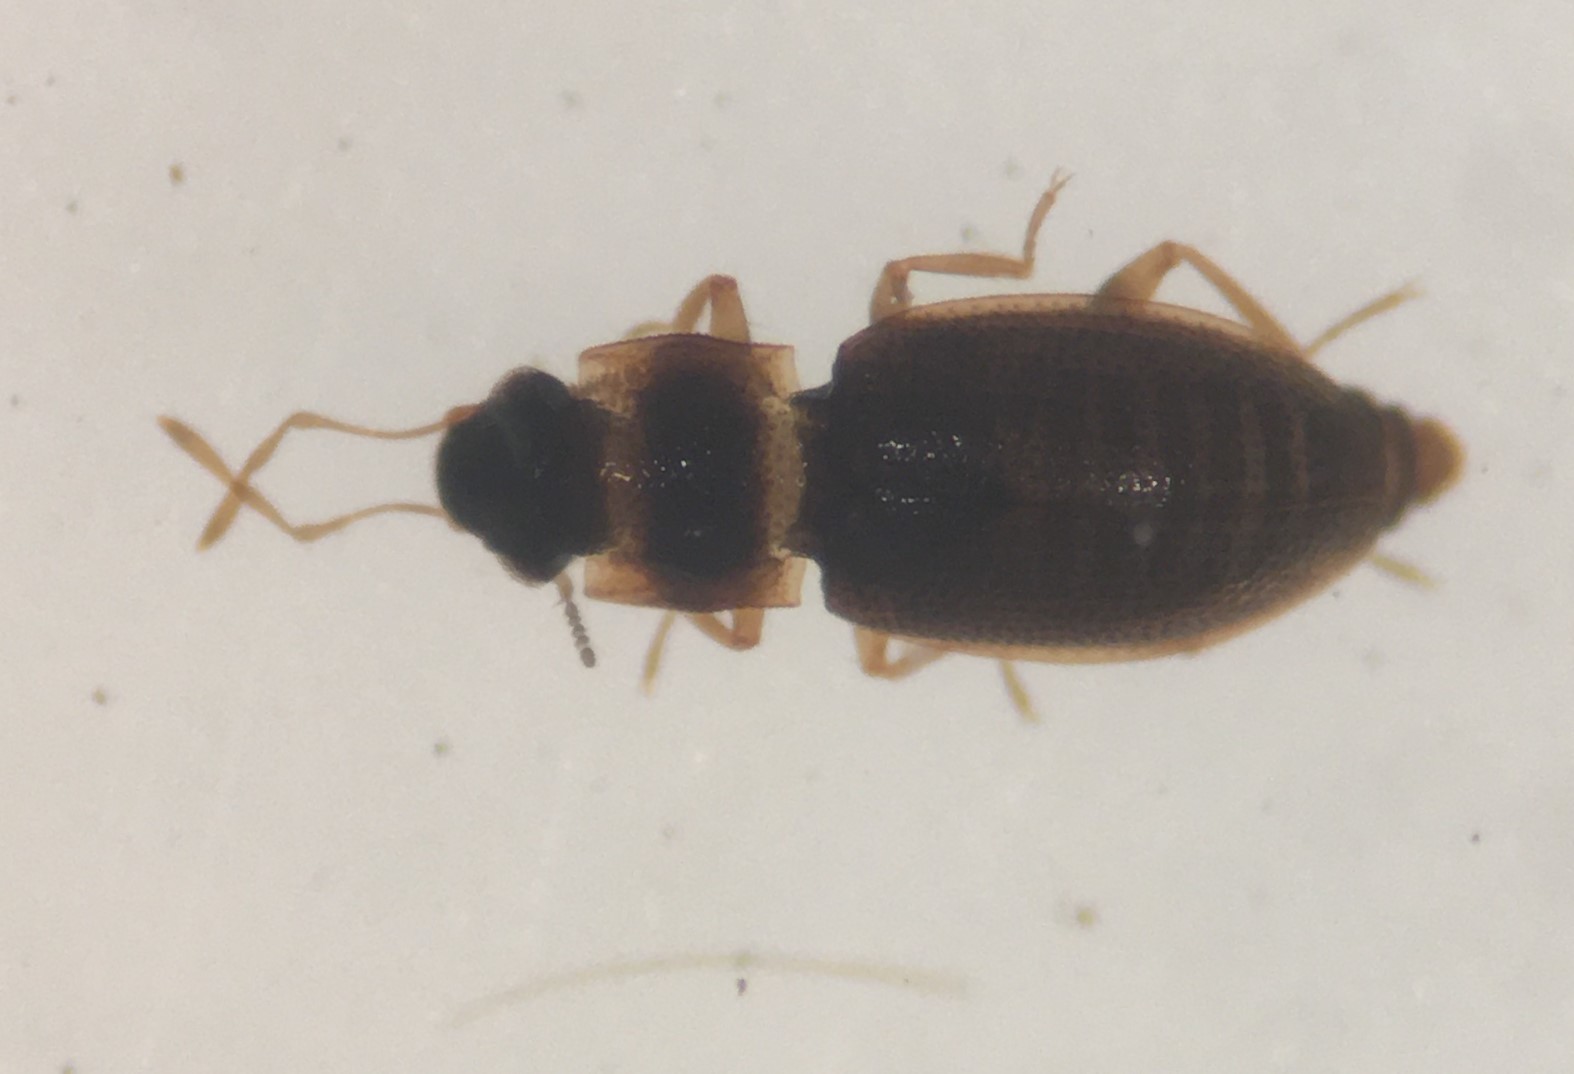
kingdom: Animalia
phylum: Arthropoda
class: Insecta
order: Coleoptera
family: Hydraenidae
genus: Hydraena
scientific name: Hydraena marginicollis
